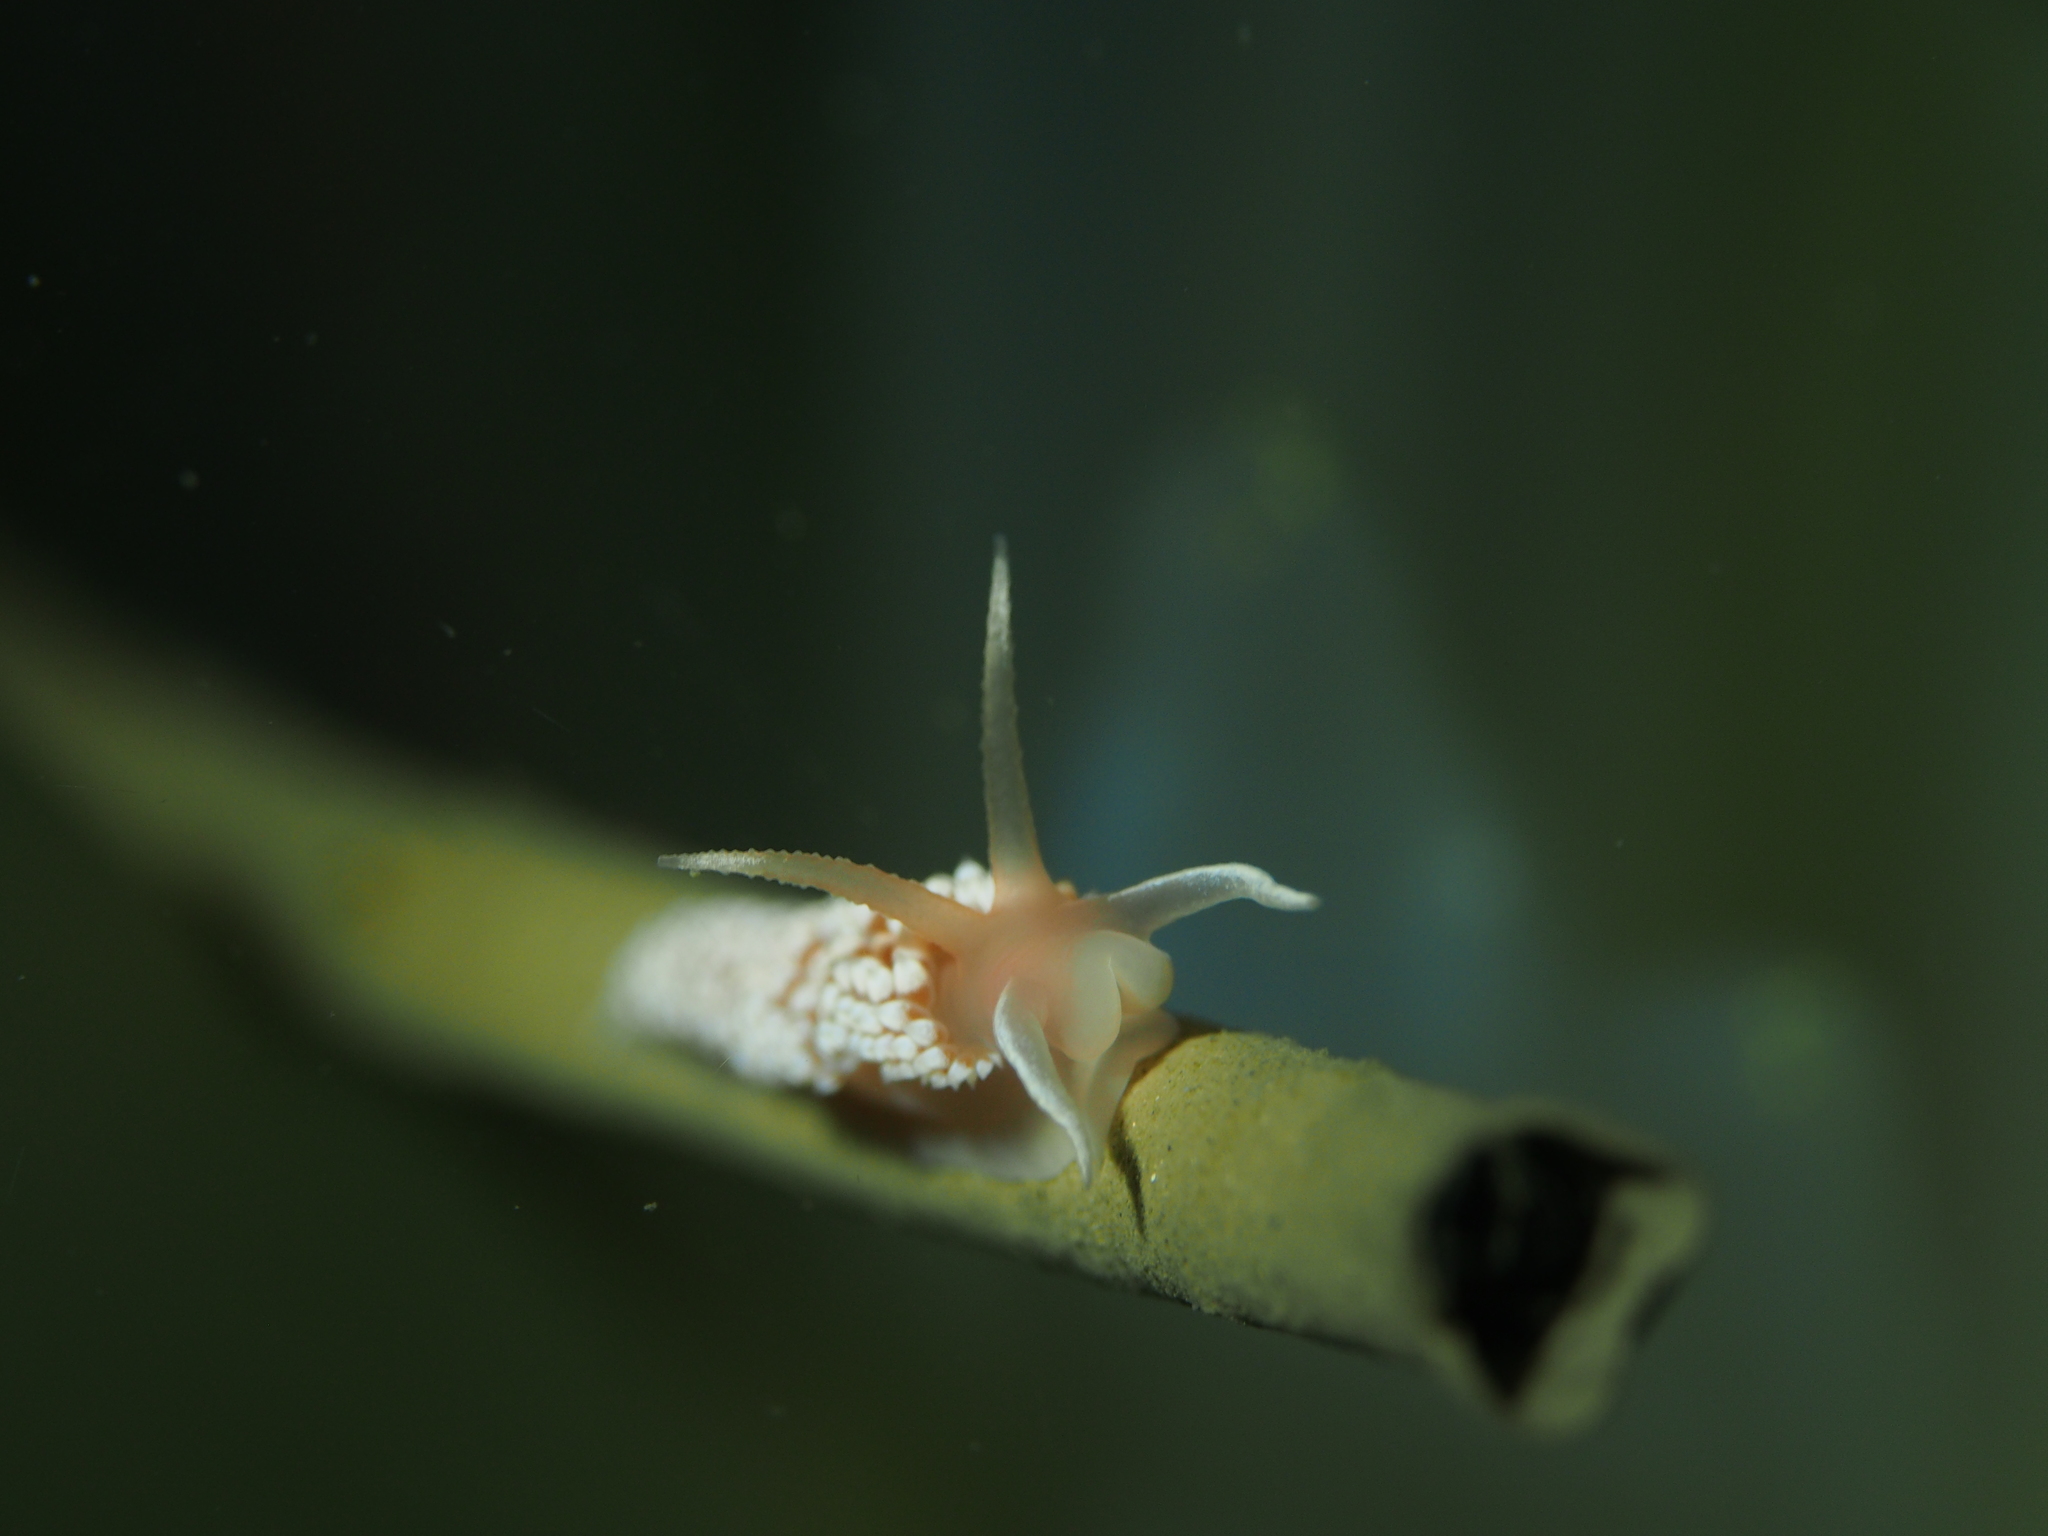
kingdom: Animalia
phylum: Mollusca
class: Gastropoda
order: Nudibranchia
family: Coryphellidae
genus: Coryphella
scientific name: Coryphella verrucosa
